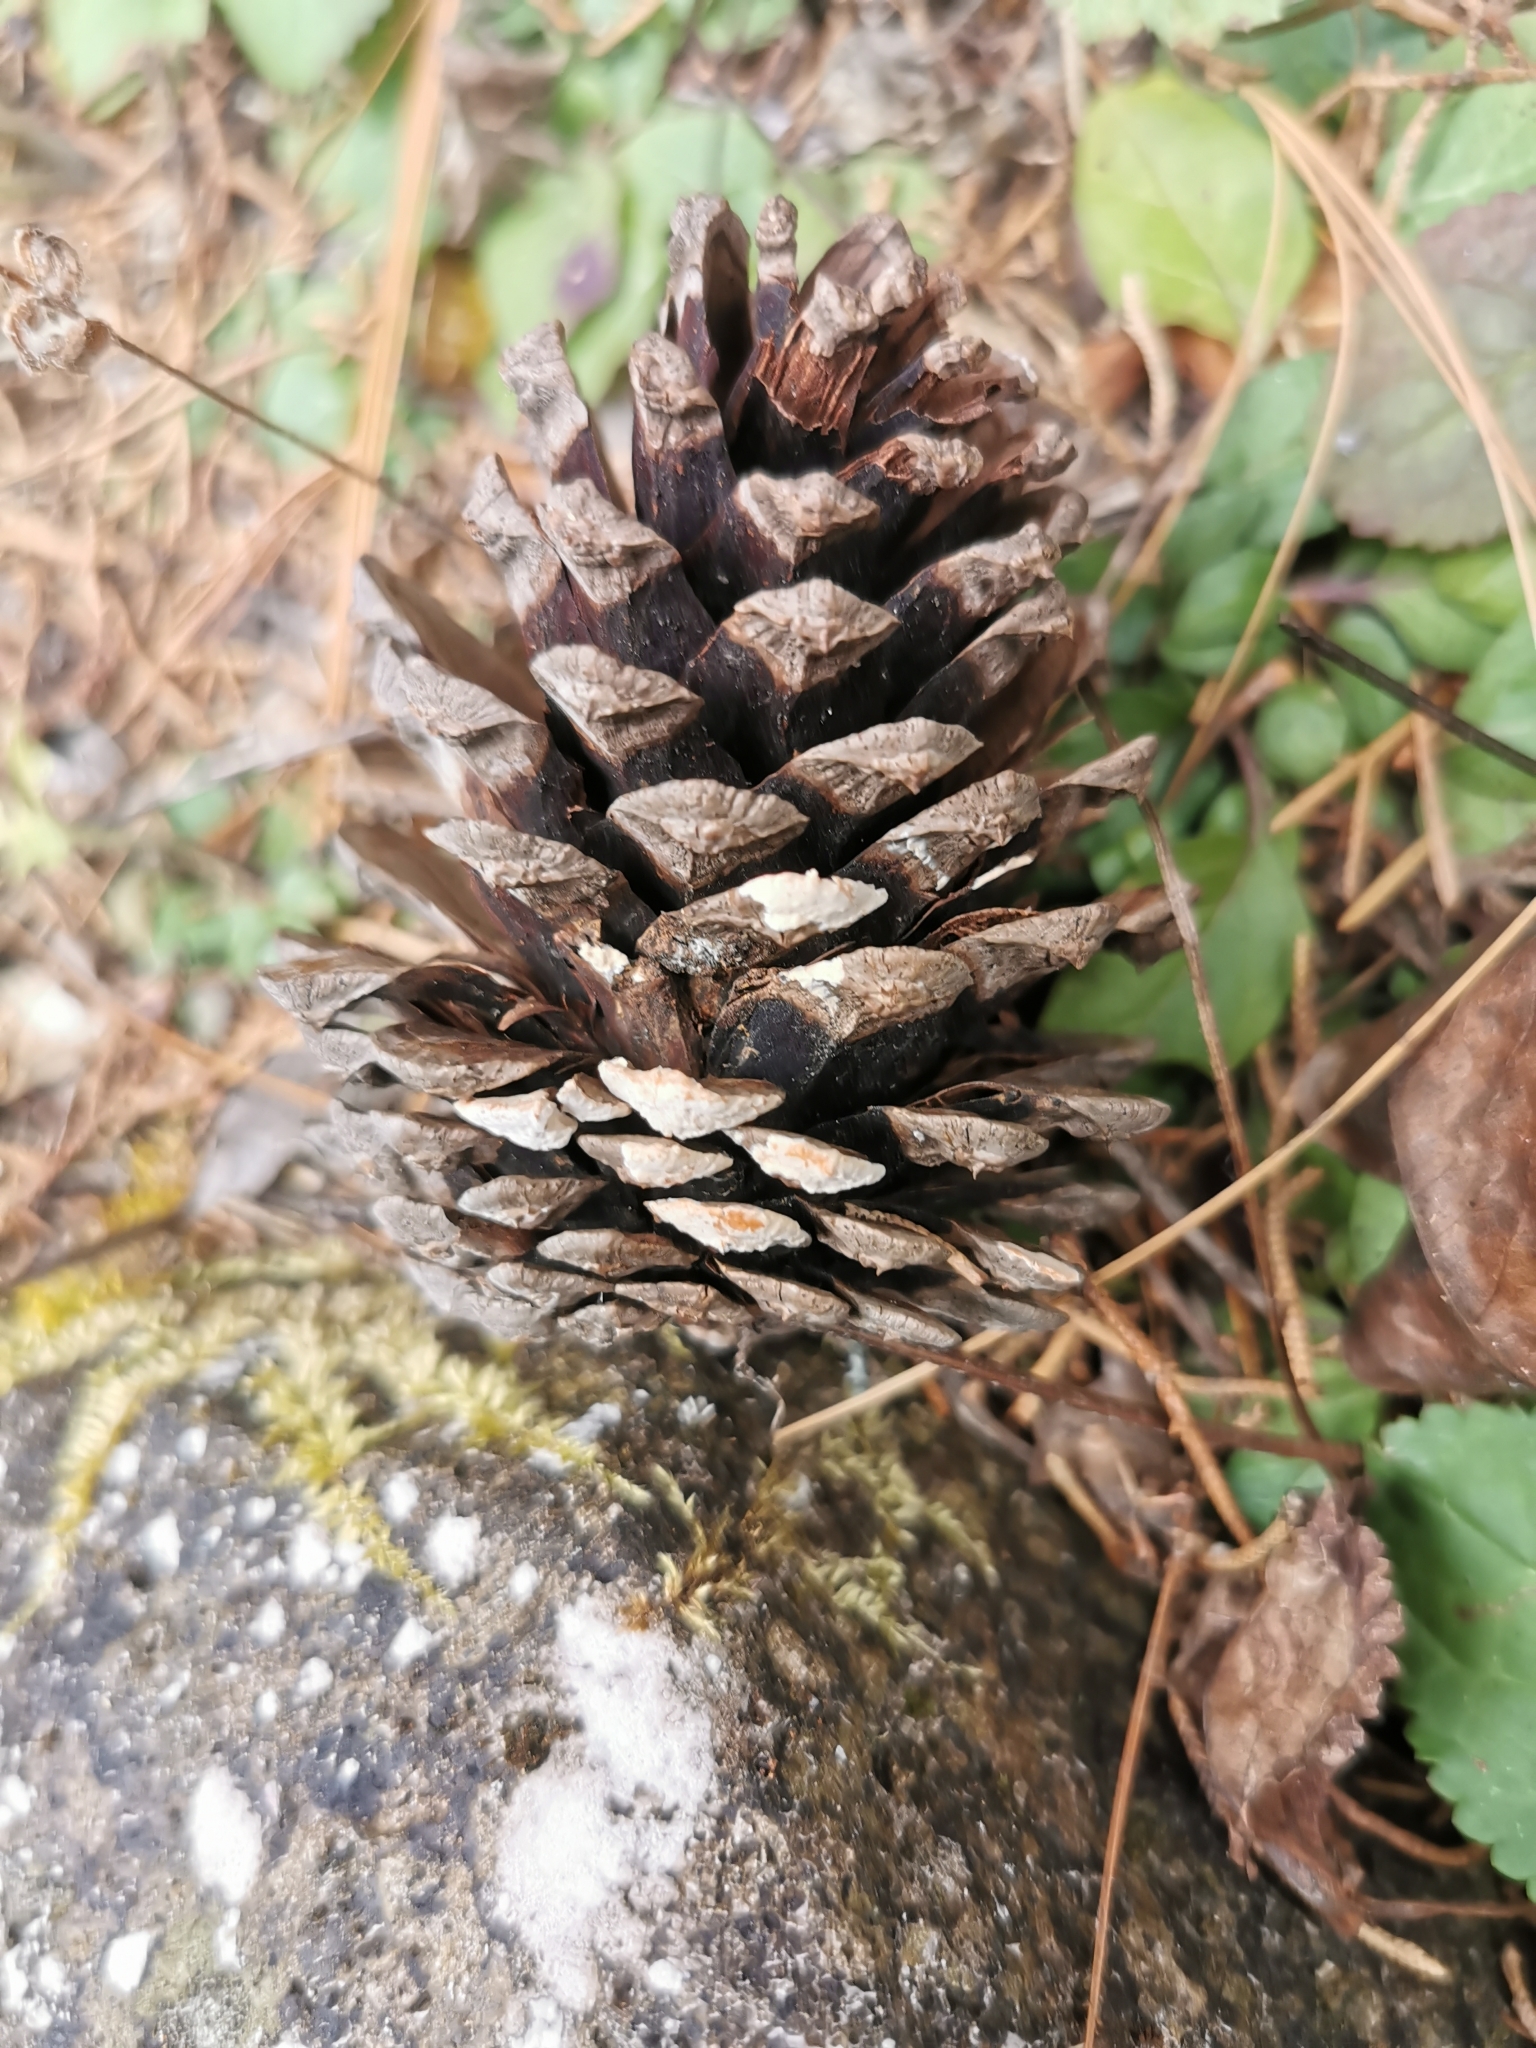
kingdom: Plantae
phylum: Tracheophyta
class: Pinopsida
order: Pinales
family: Pinaceae
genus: Pinus
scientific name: Pinus durangensis
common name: Durango pine
